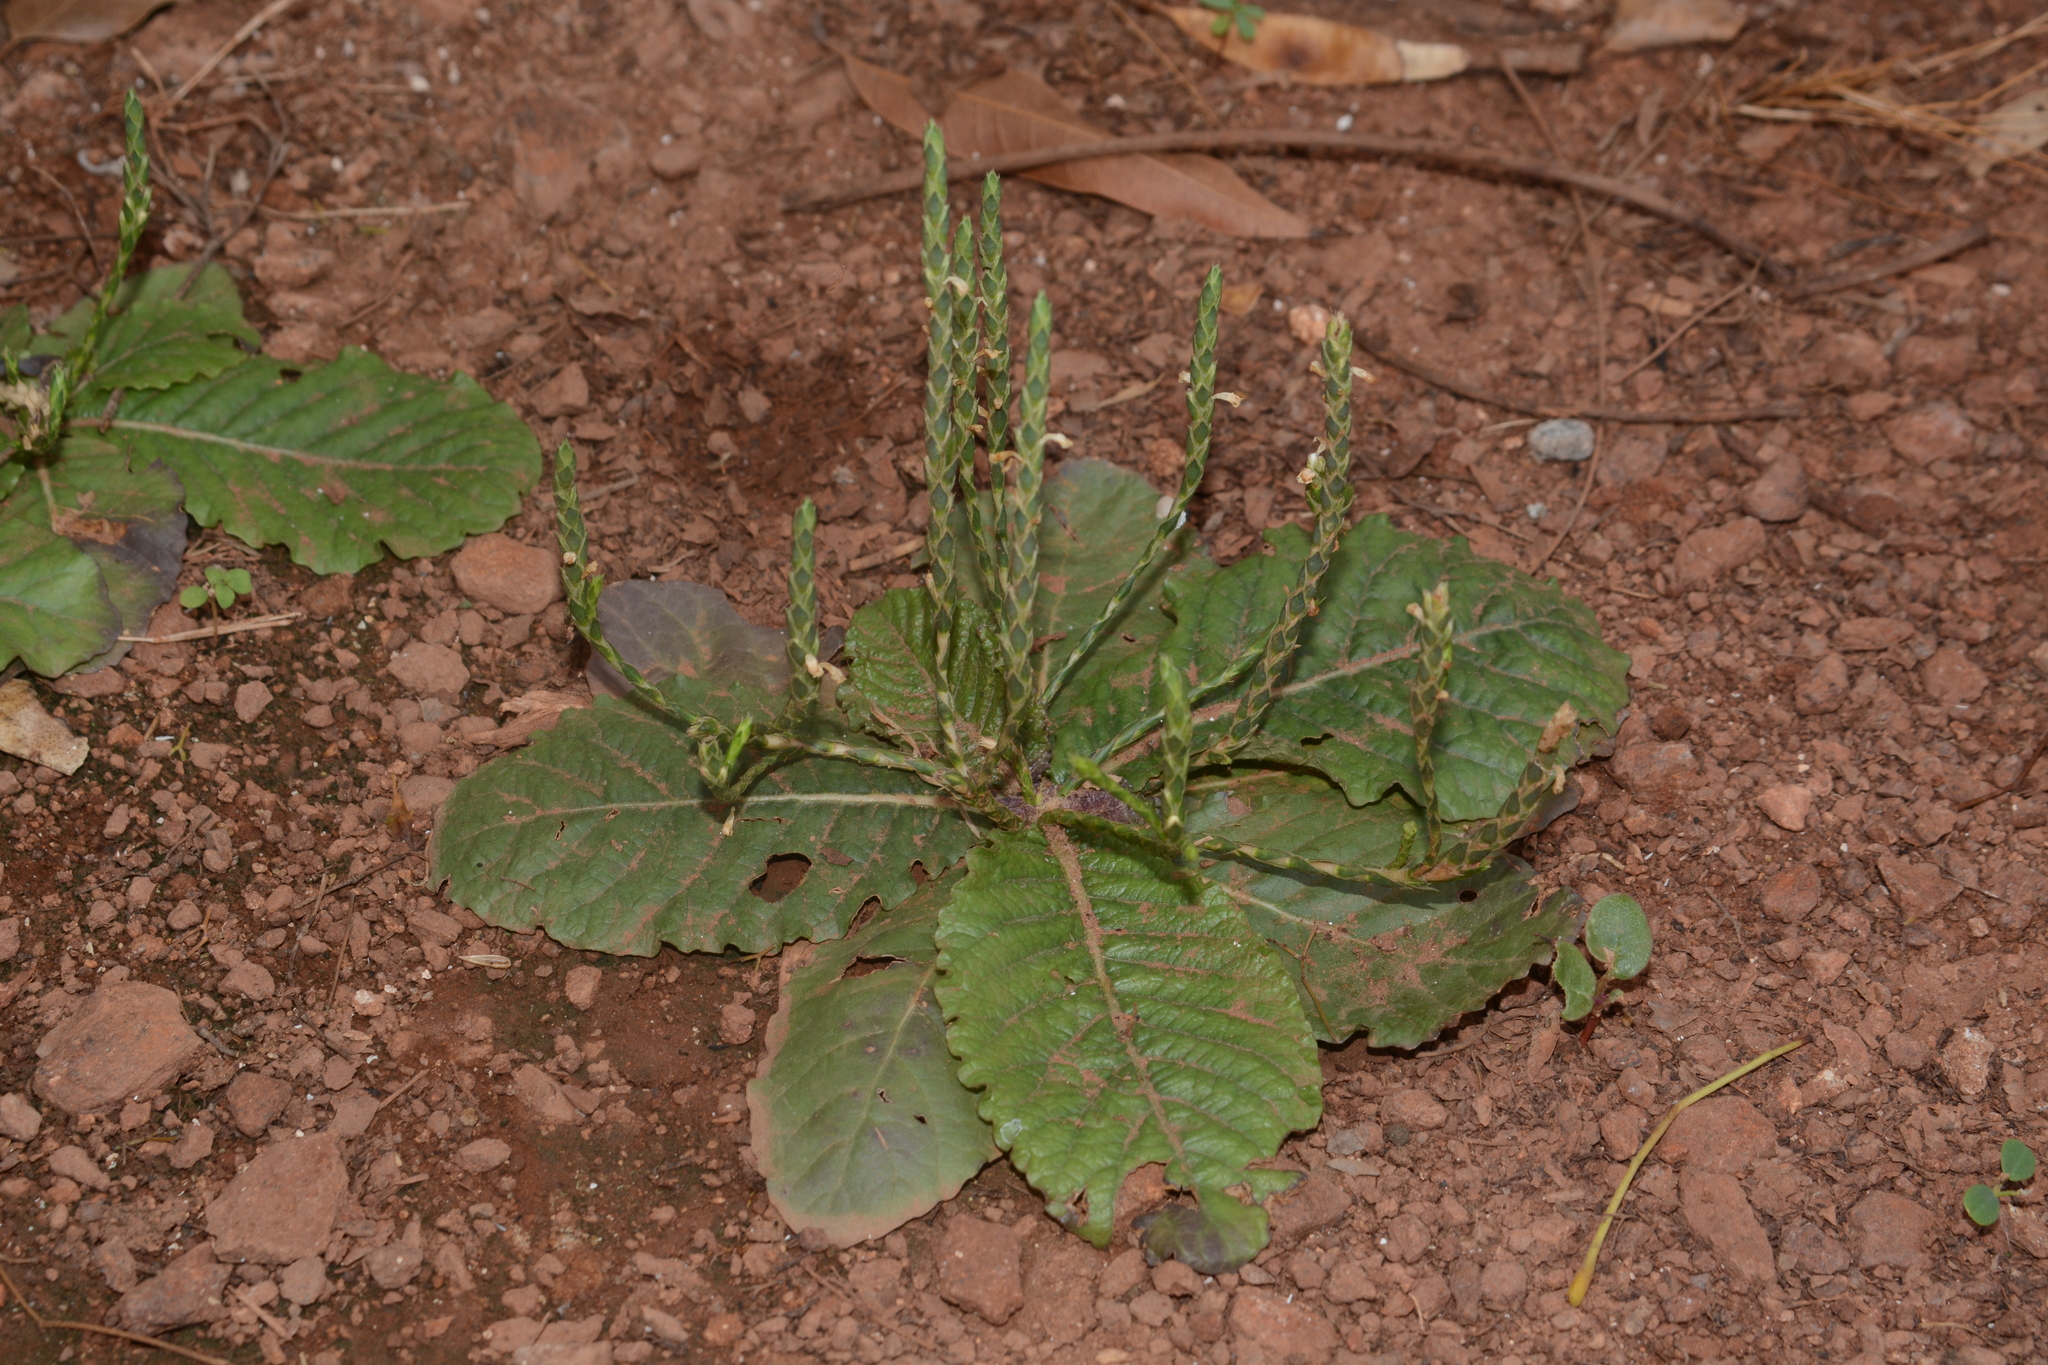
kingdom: Plantae
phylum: Tracheophyta
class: Magnoliopsida
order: Lamiales
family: Acanthaceae
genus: Elytraria
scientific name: Elytraria acaulis
